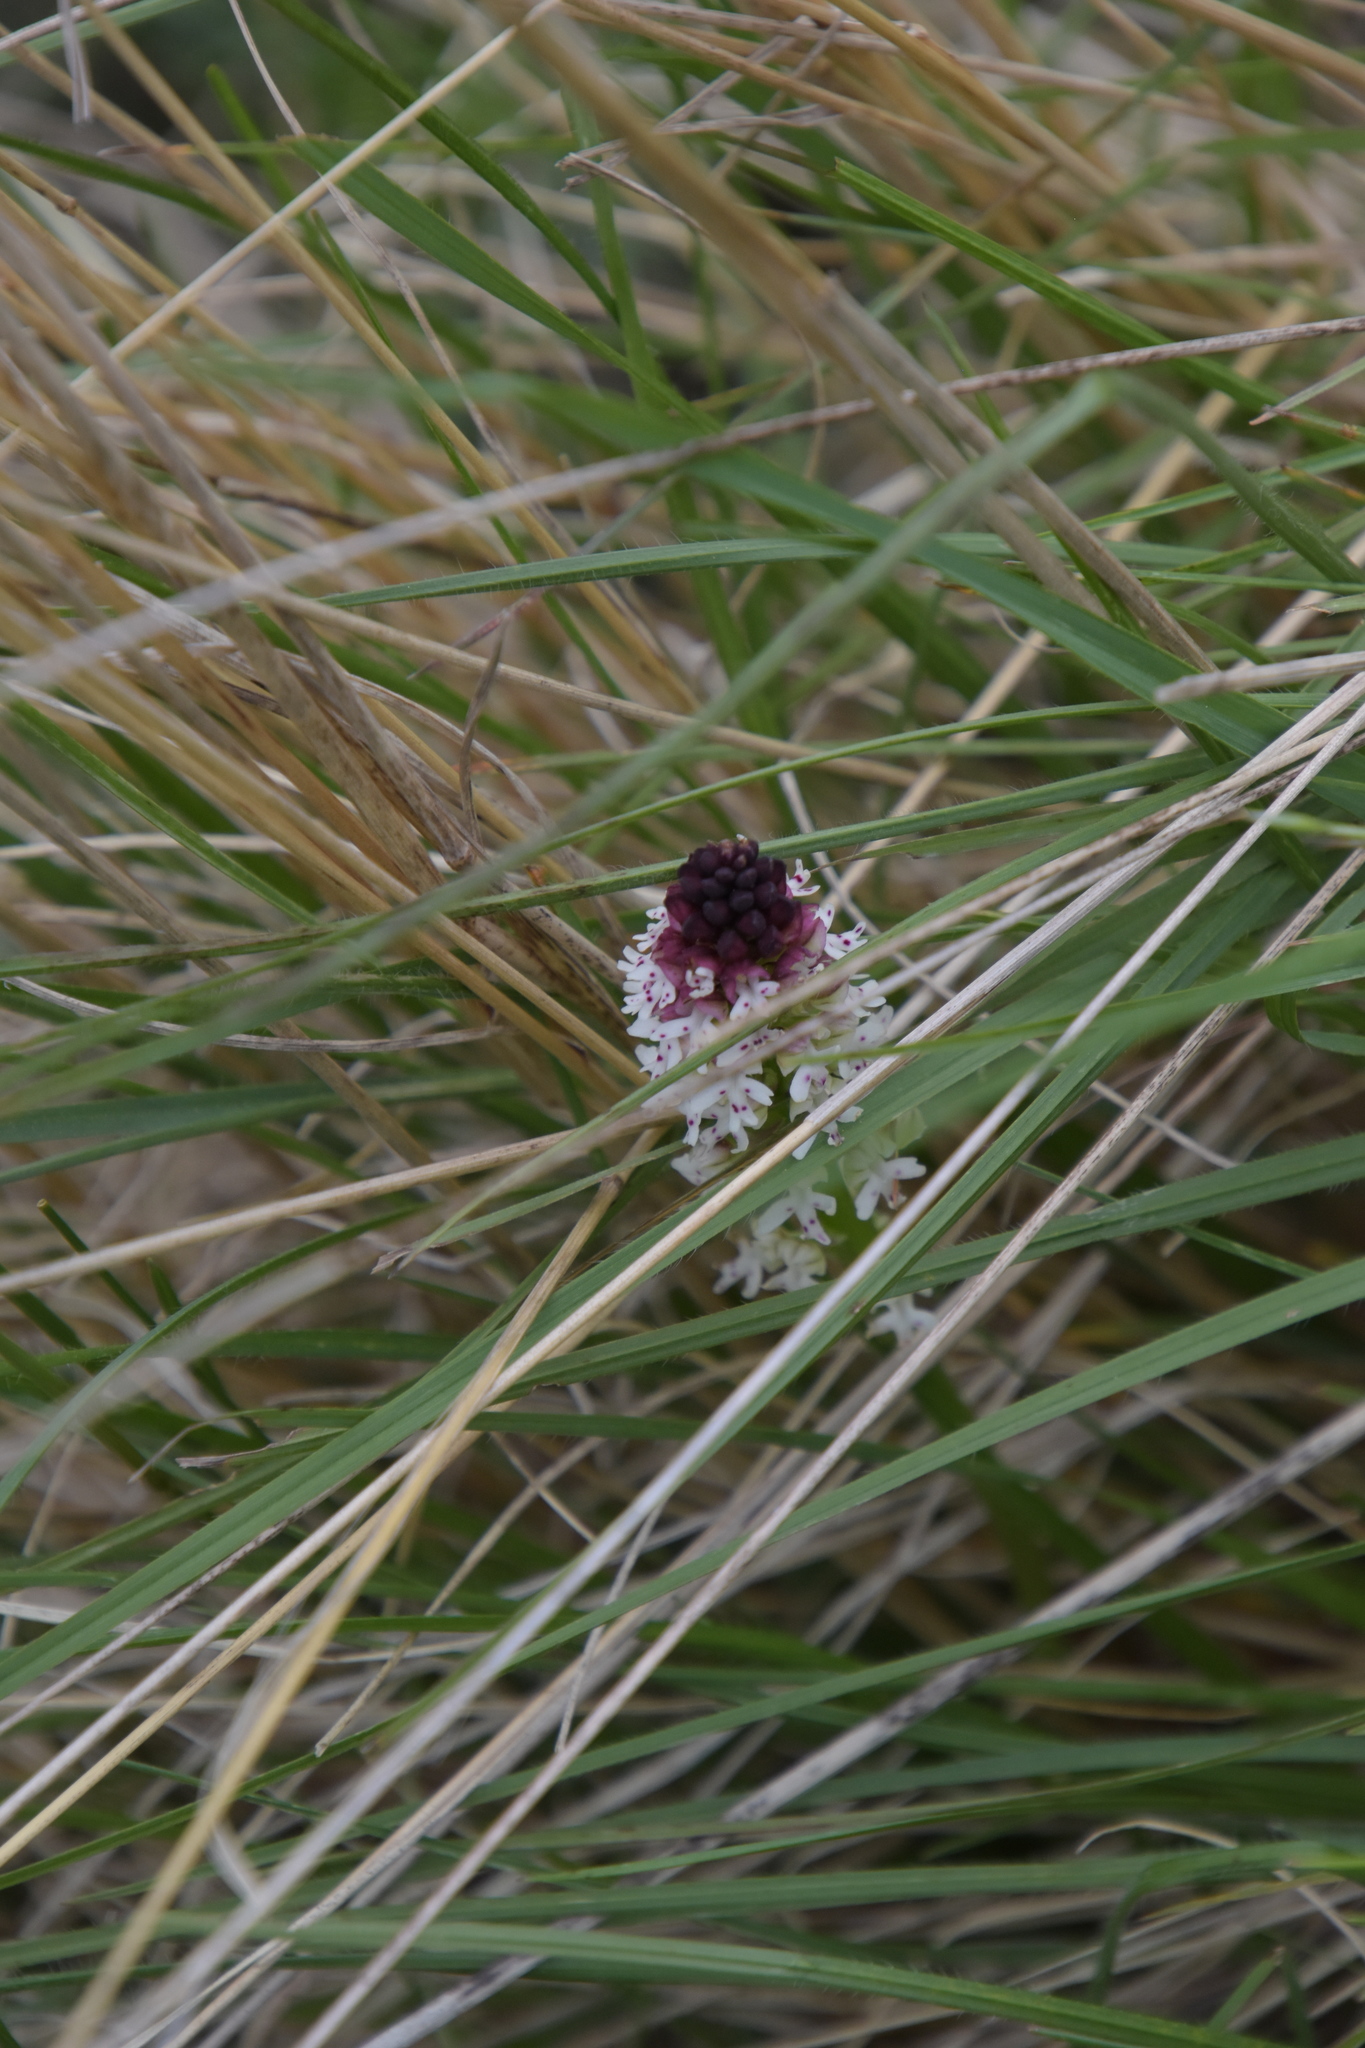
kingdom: Plantae
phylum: Tracheophyta
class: Liliopsida
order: Asparagales
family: Orchidaceae
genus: Neotinea
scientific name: Neotinea ustulata
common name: Burnt orchid
